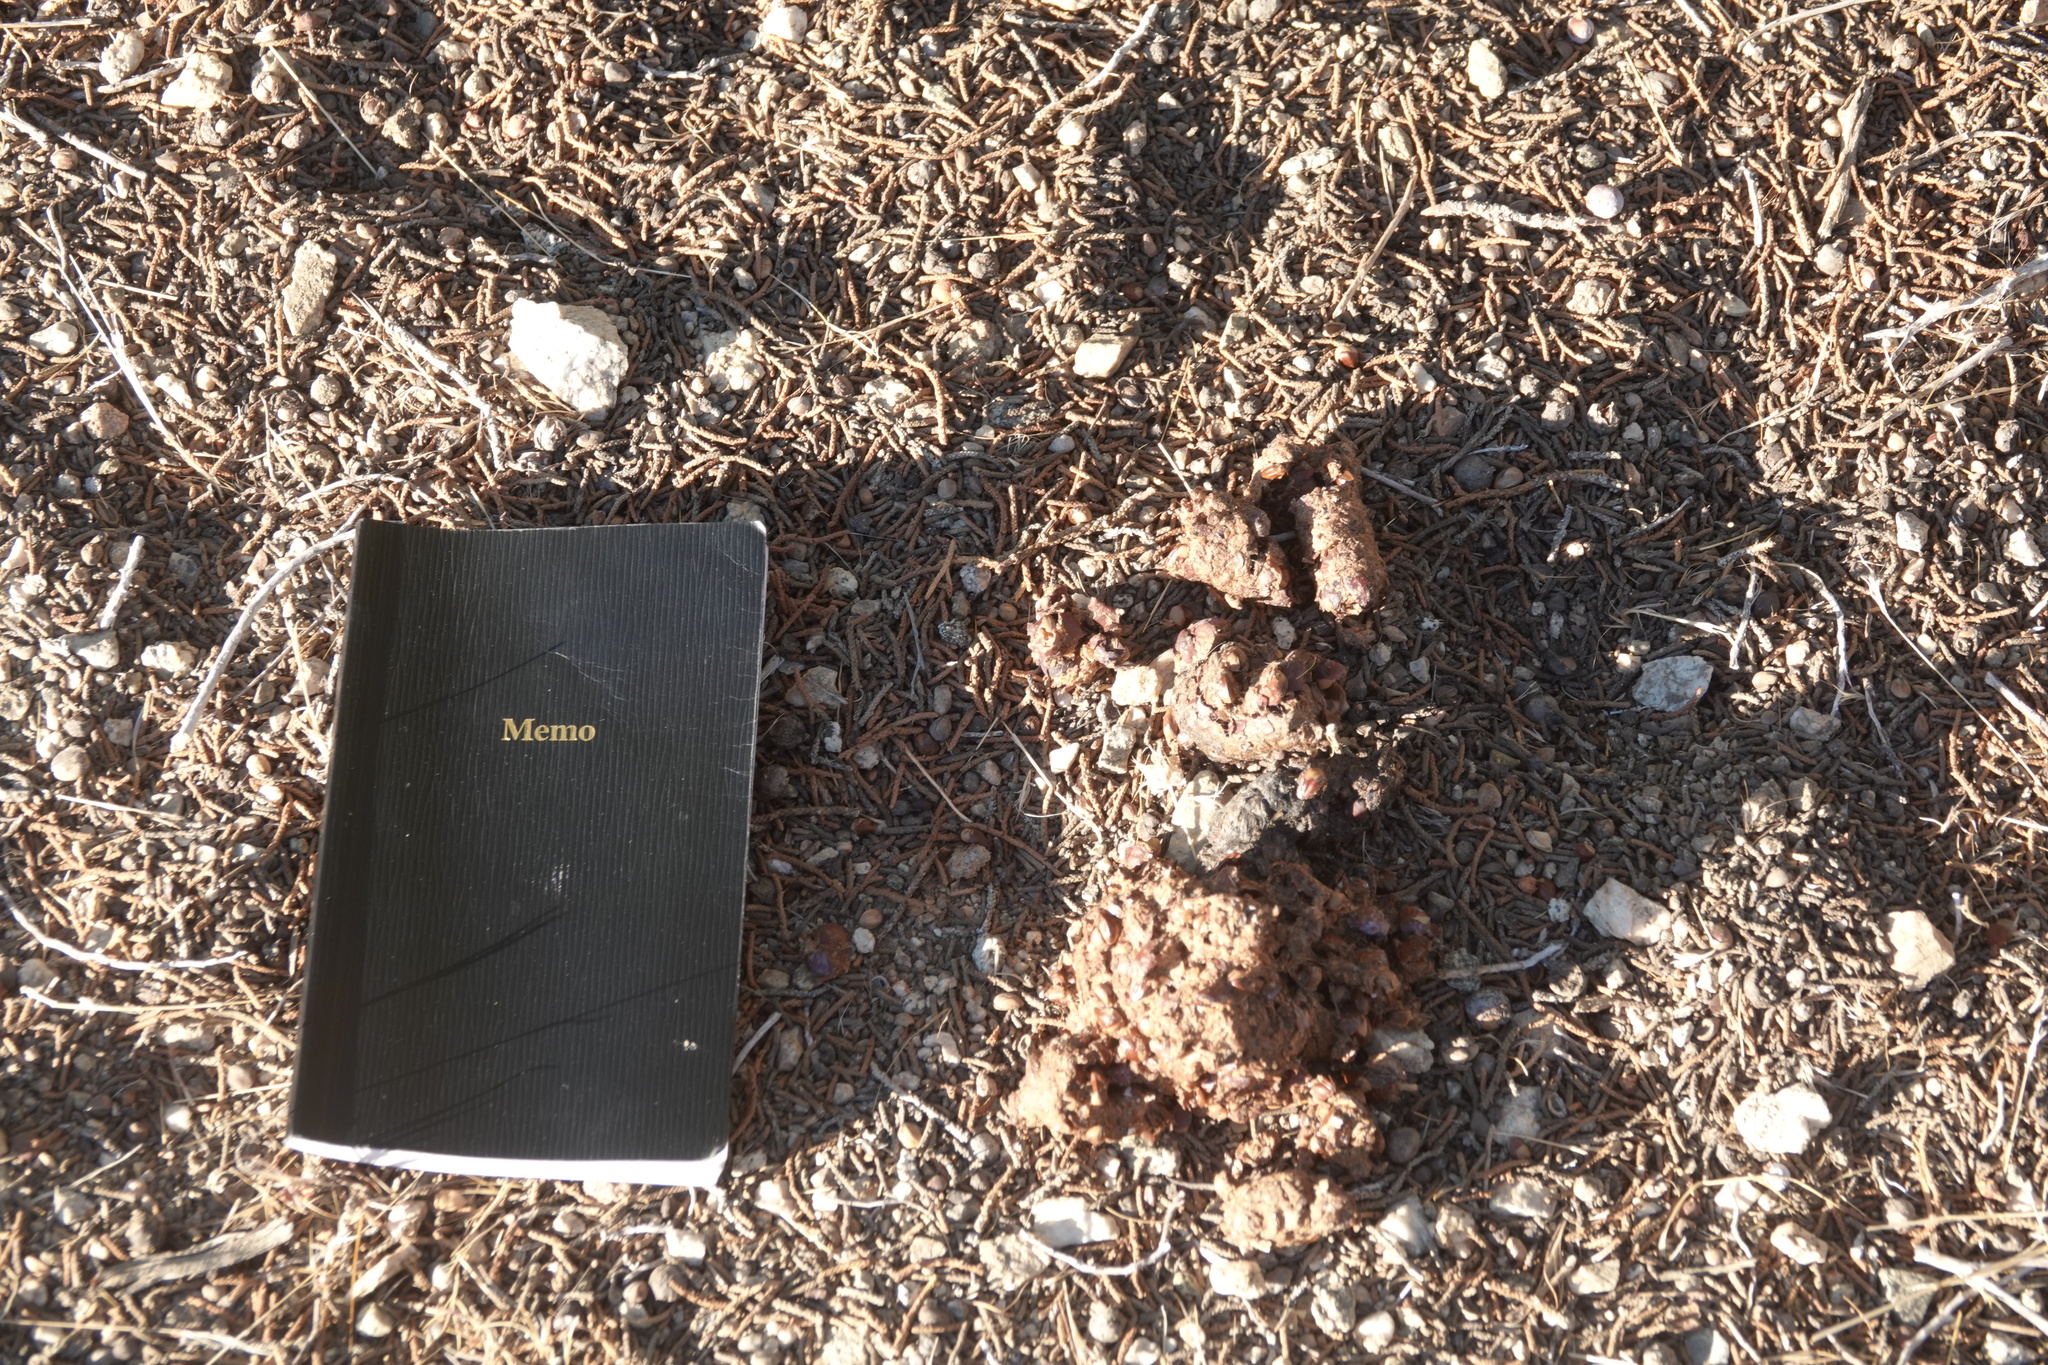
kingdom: Animalia
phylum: Chordata
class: Mammalia
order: Carnivora
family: Ursidae
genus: Ursus
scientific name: Ursus americanus
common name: American black bear
